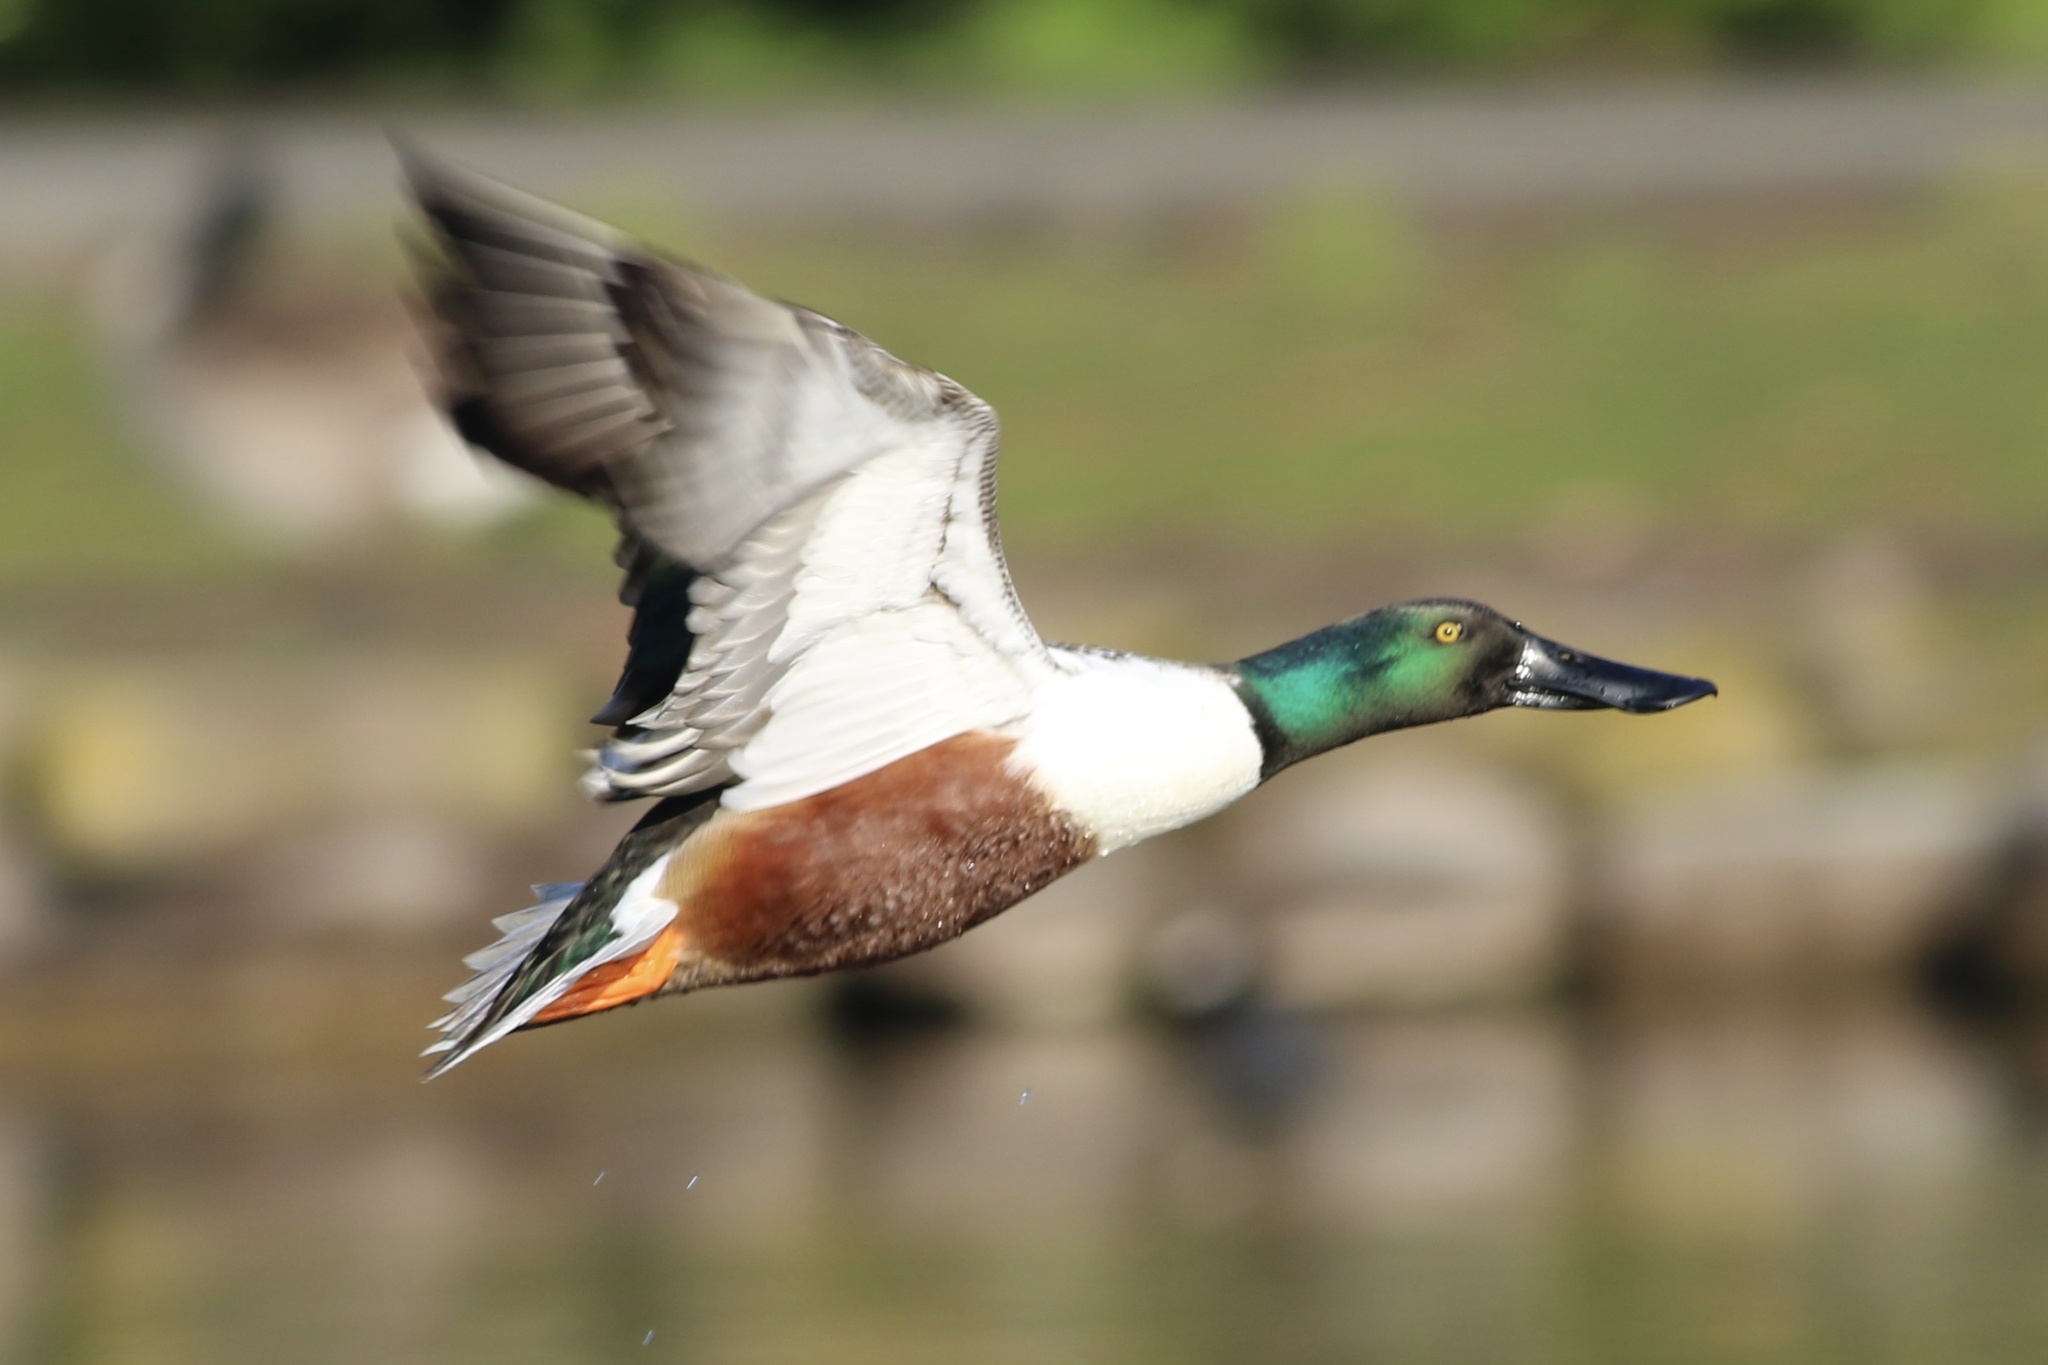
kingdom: Animalia
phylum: Chordata
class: Aves
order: Anseriformes
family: Anatidae
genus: Spatula
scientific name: Spatula clypeata
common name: Northern shoveler
